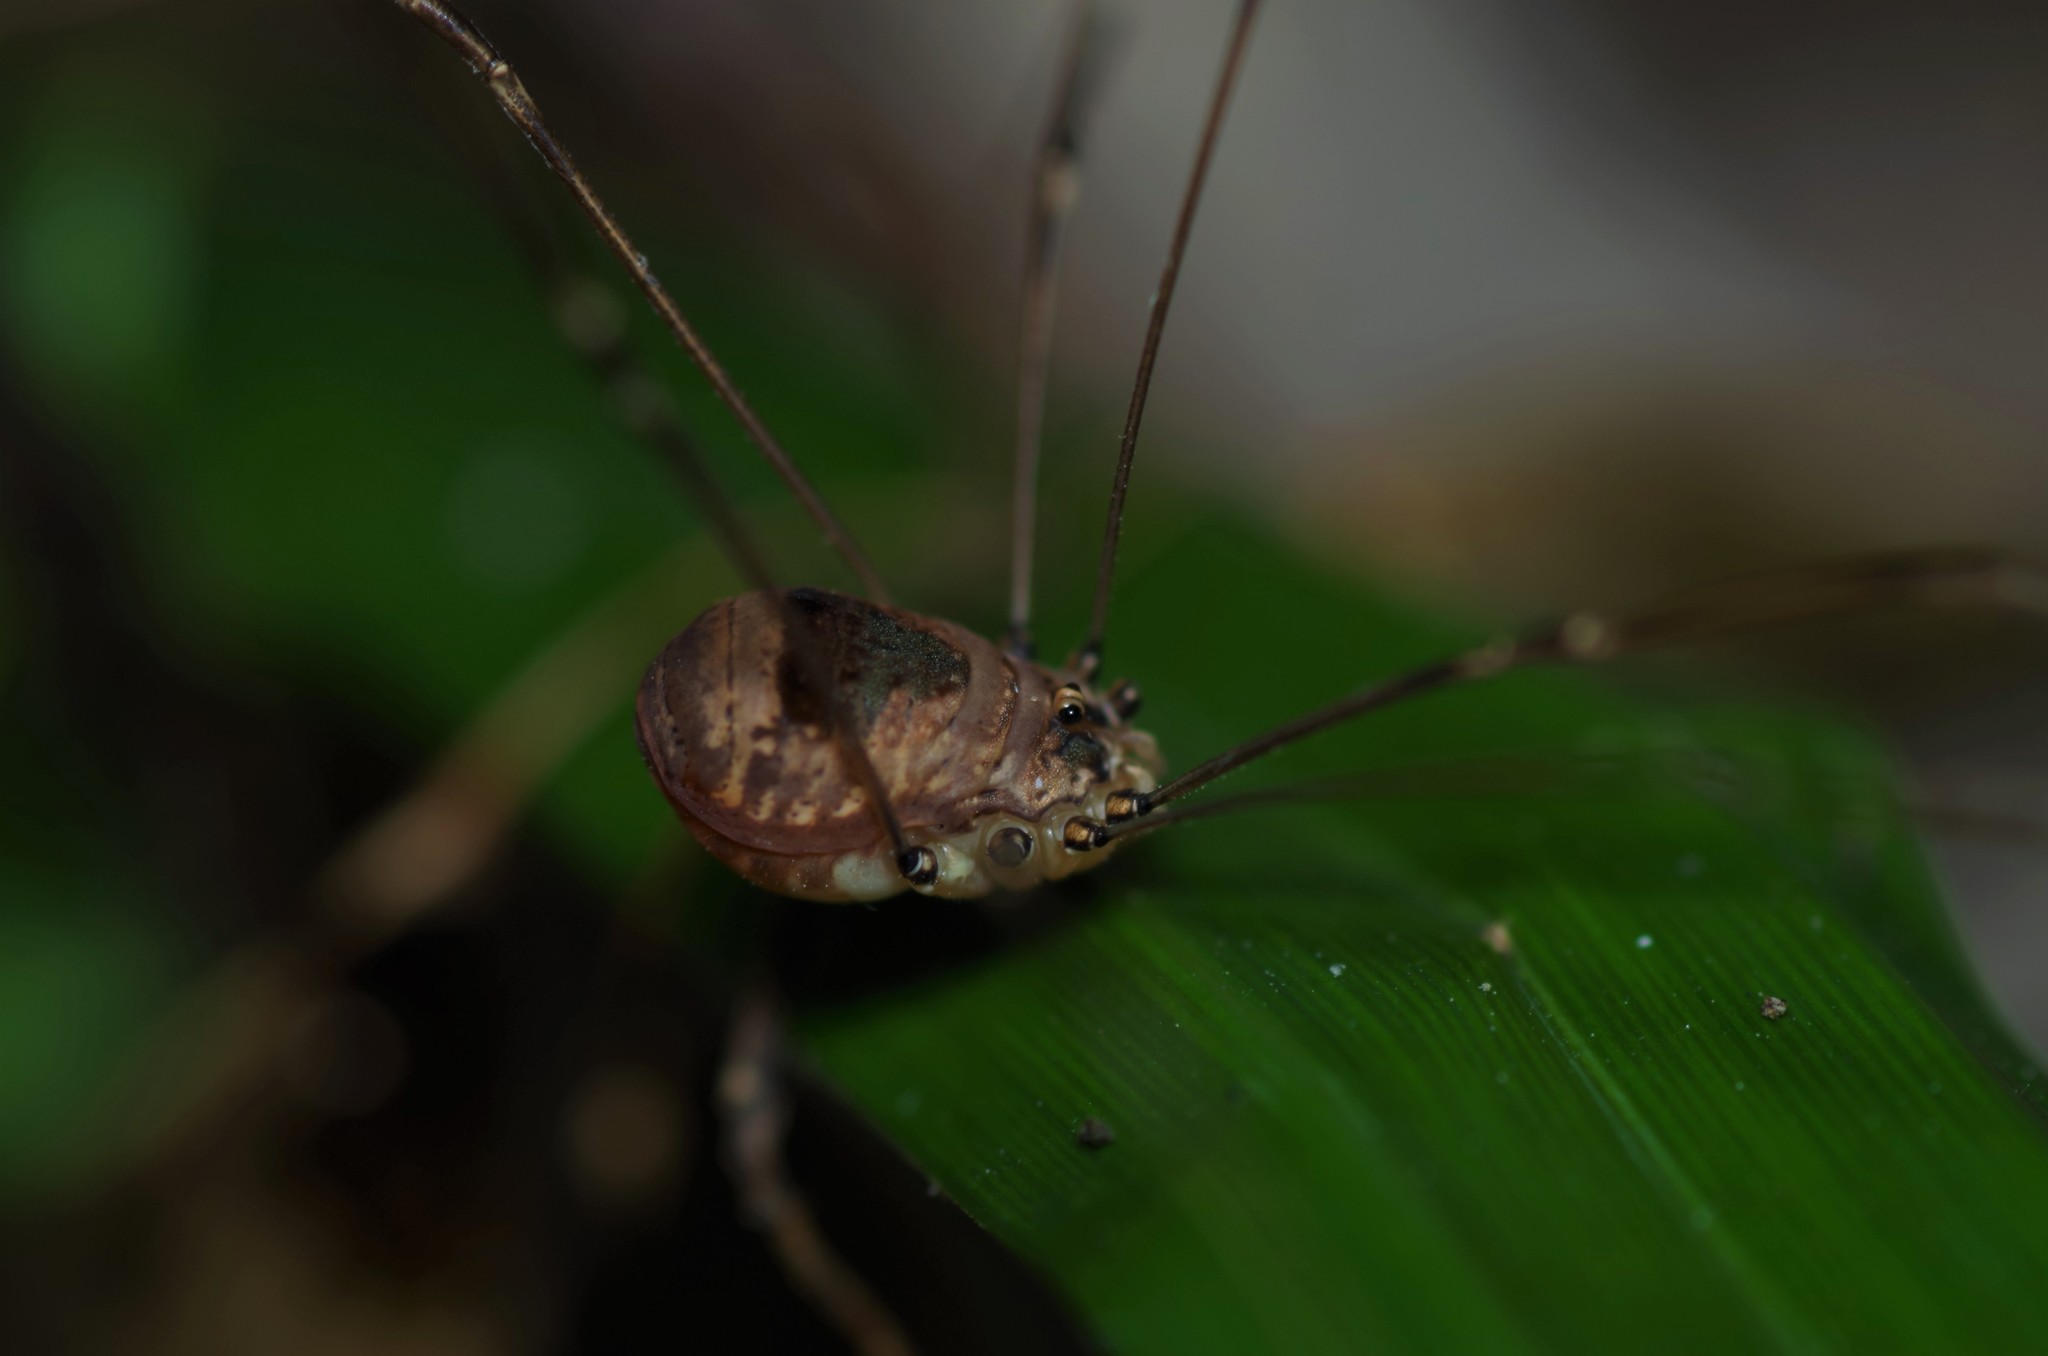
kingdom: Animalia
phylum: Arthropoda
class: Arachnida
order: Opiliones
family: Sclerosomatidae
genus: Leiobunum
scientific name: Leiobunum blackwalli
